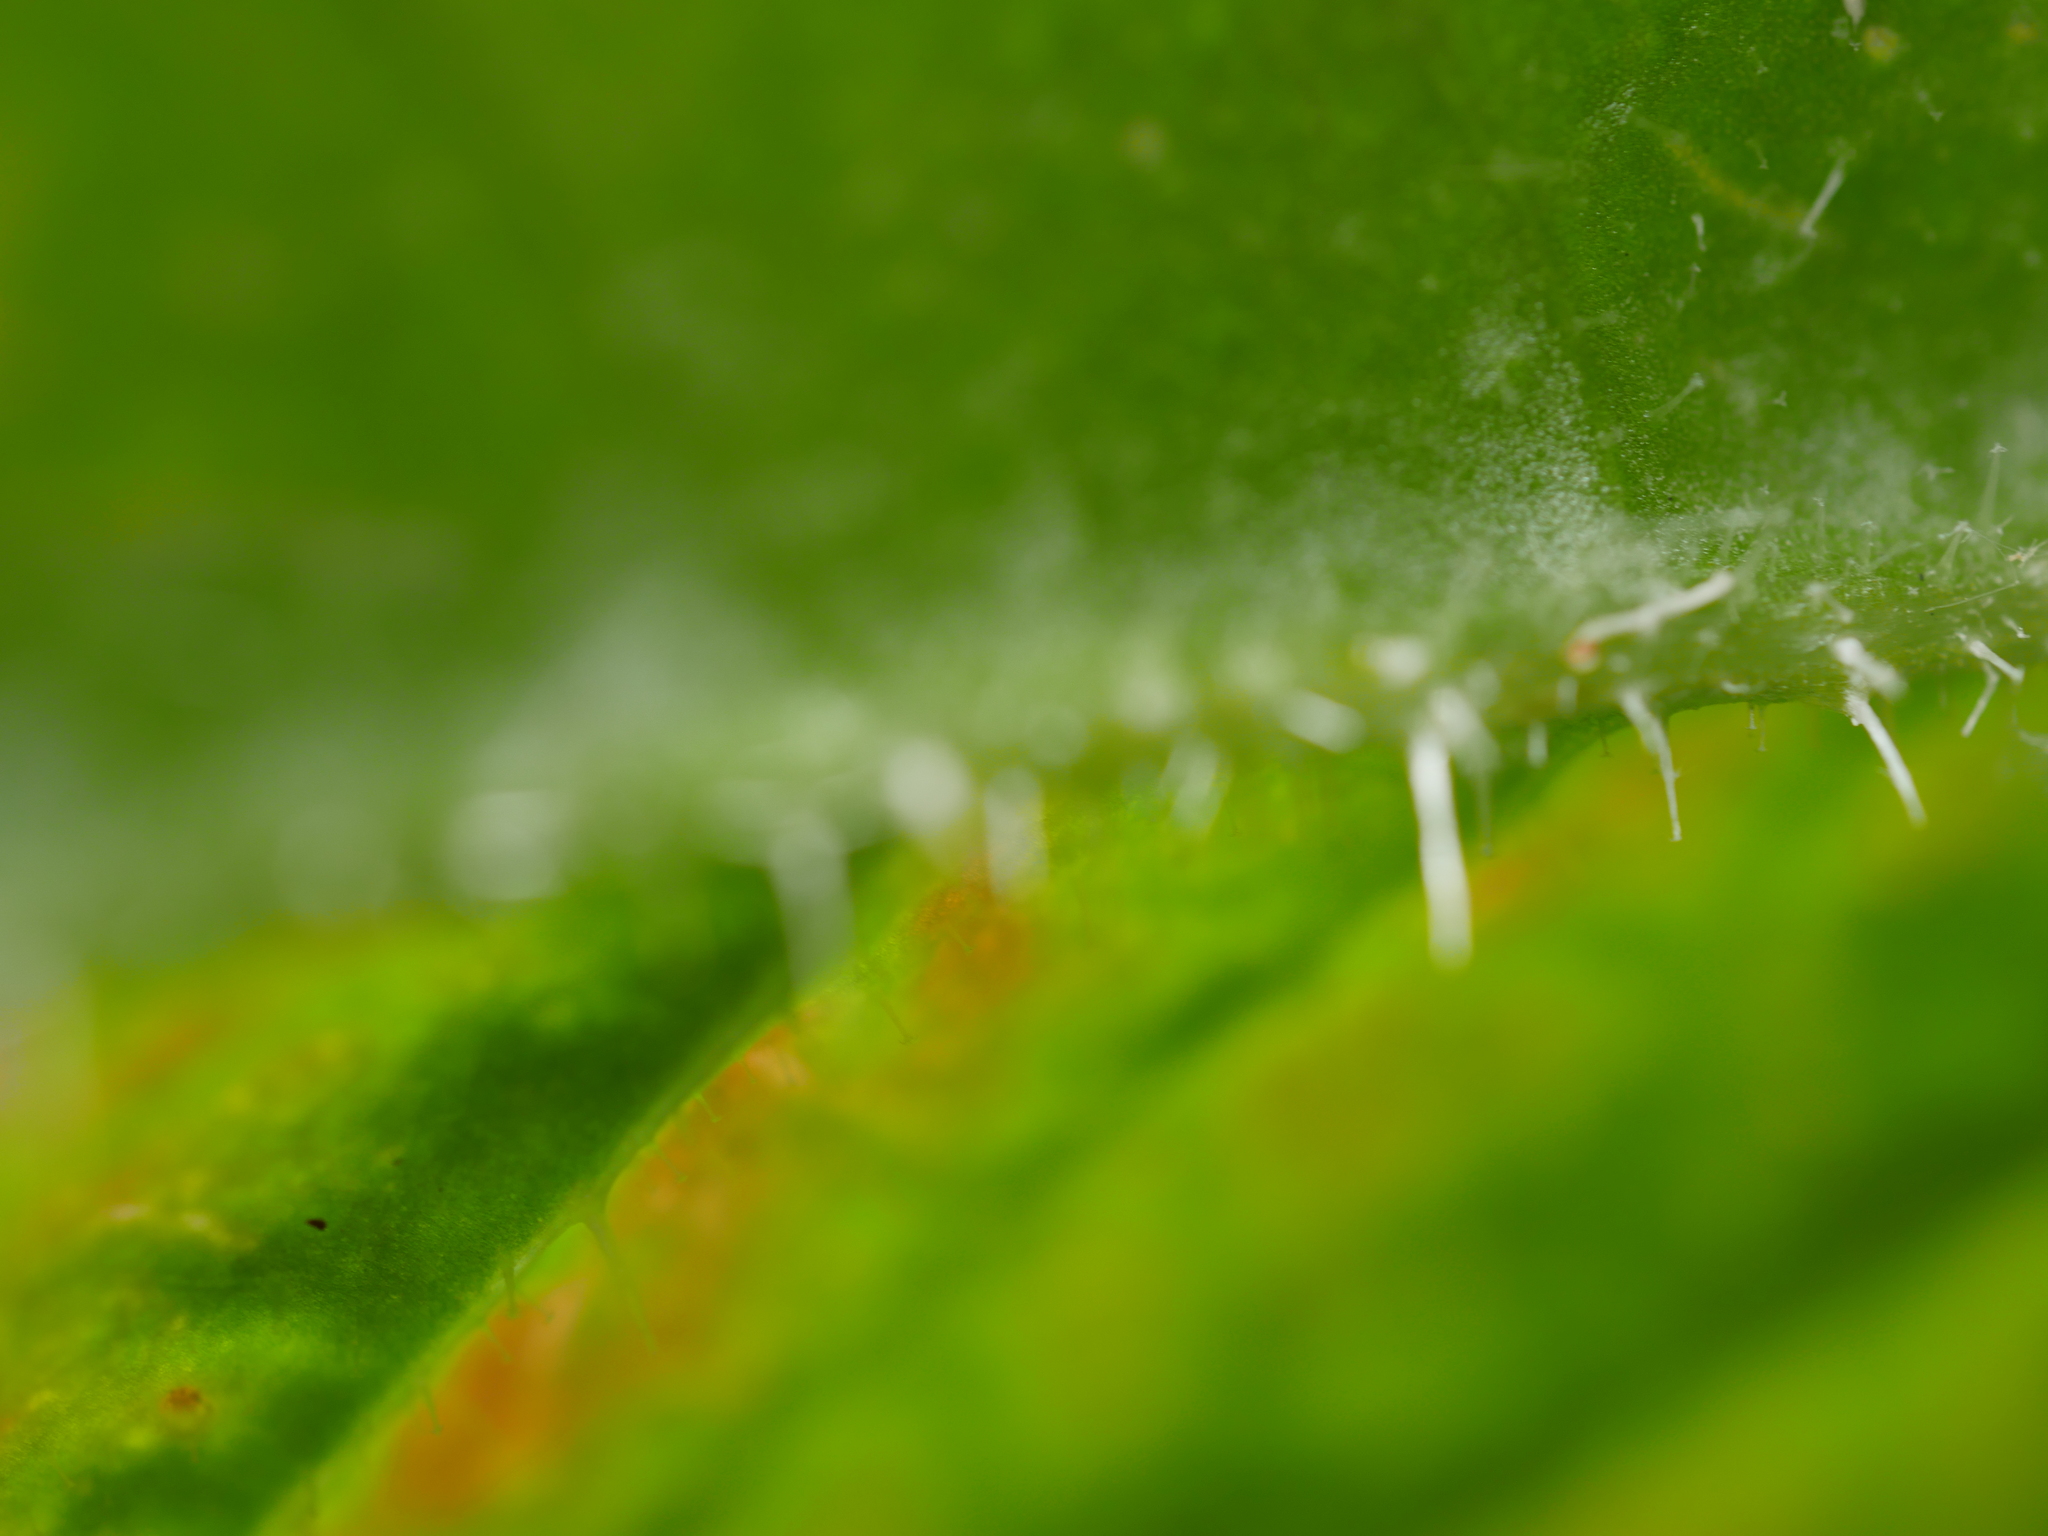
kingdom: Plantae
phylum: Tracheophyta
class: Magnoliopsida
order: Asterales
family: Asteraceae
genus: Helminthotheca
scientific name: Helminthotheca echioides
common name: Ox-tongue
